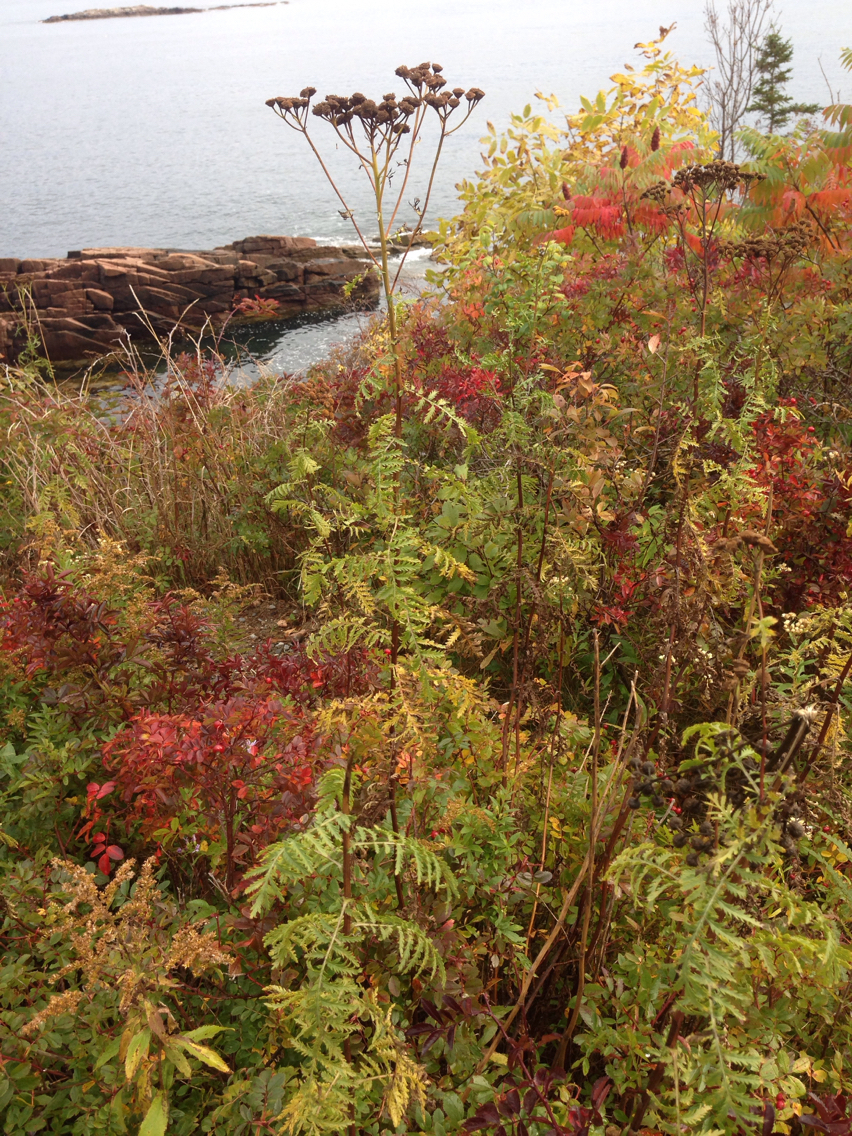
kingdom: Plantae
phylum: Tracheophyta
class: Magnoliopsida
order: Asterales
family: Asteraceae
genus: Tanacetum
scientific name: Tanacetum vulgare
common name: Common tansy
